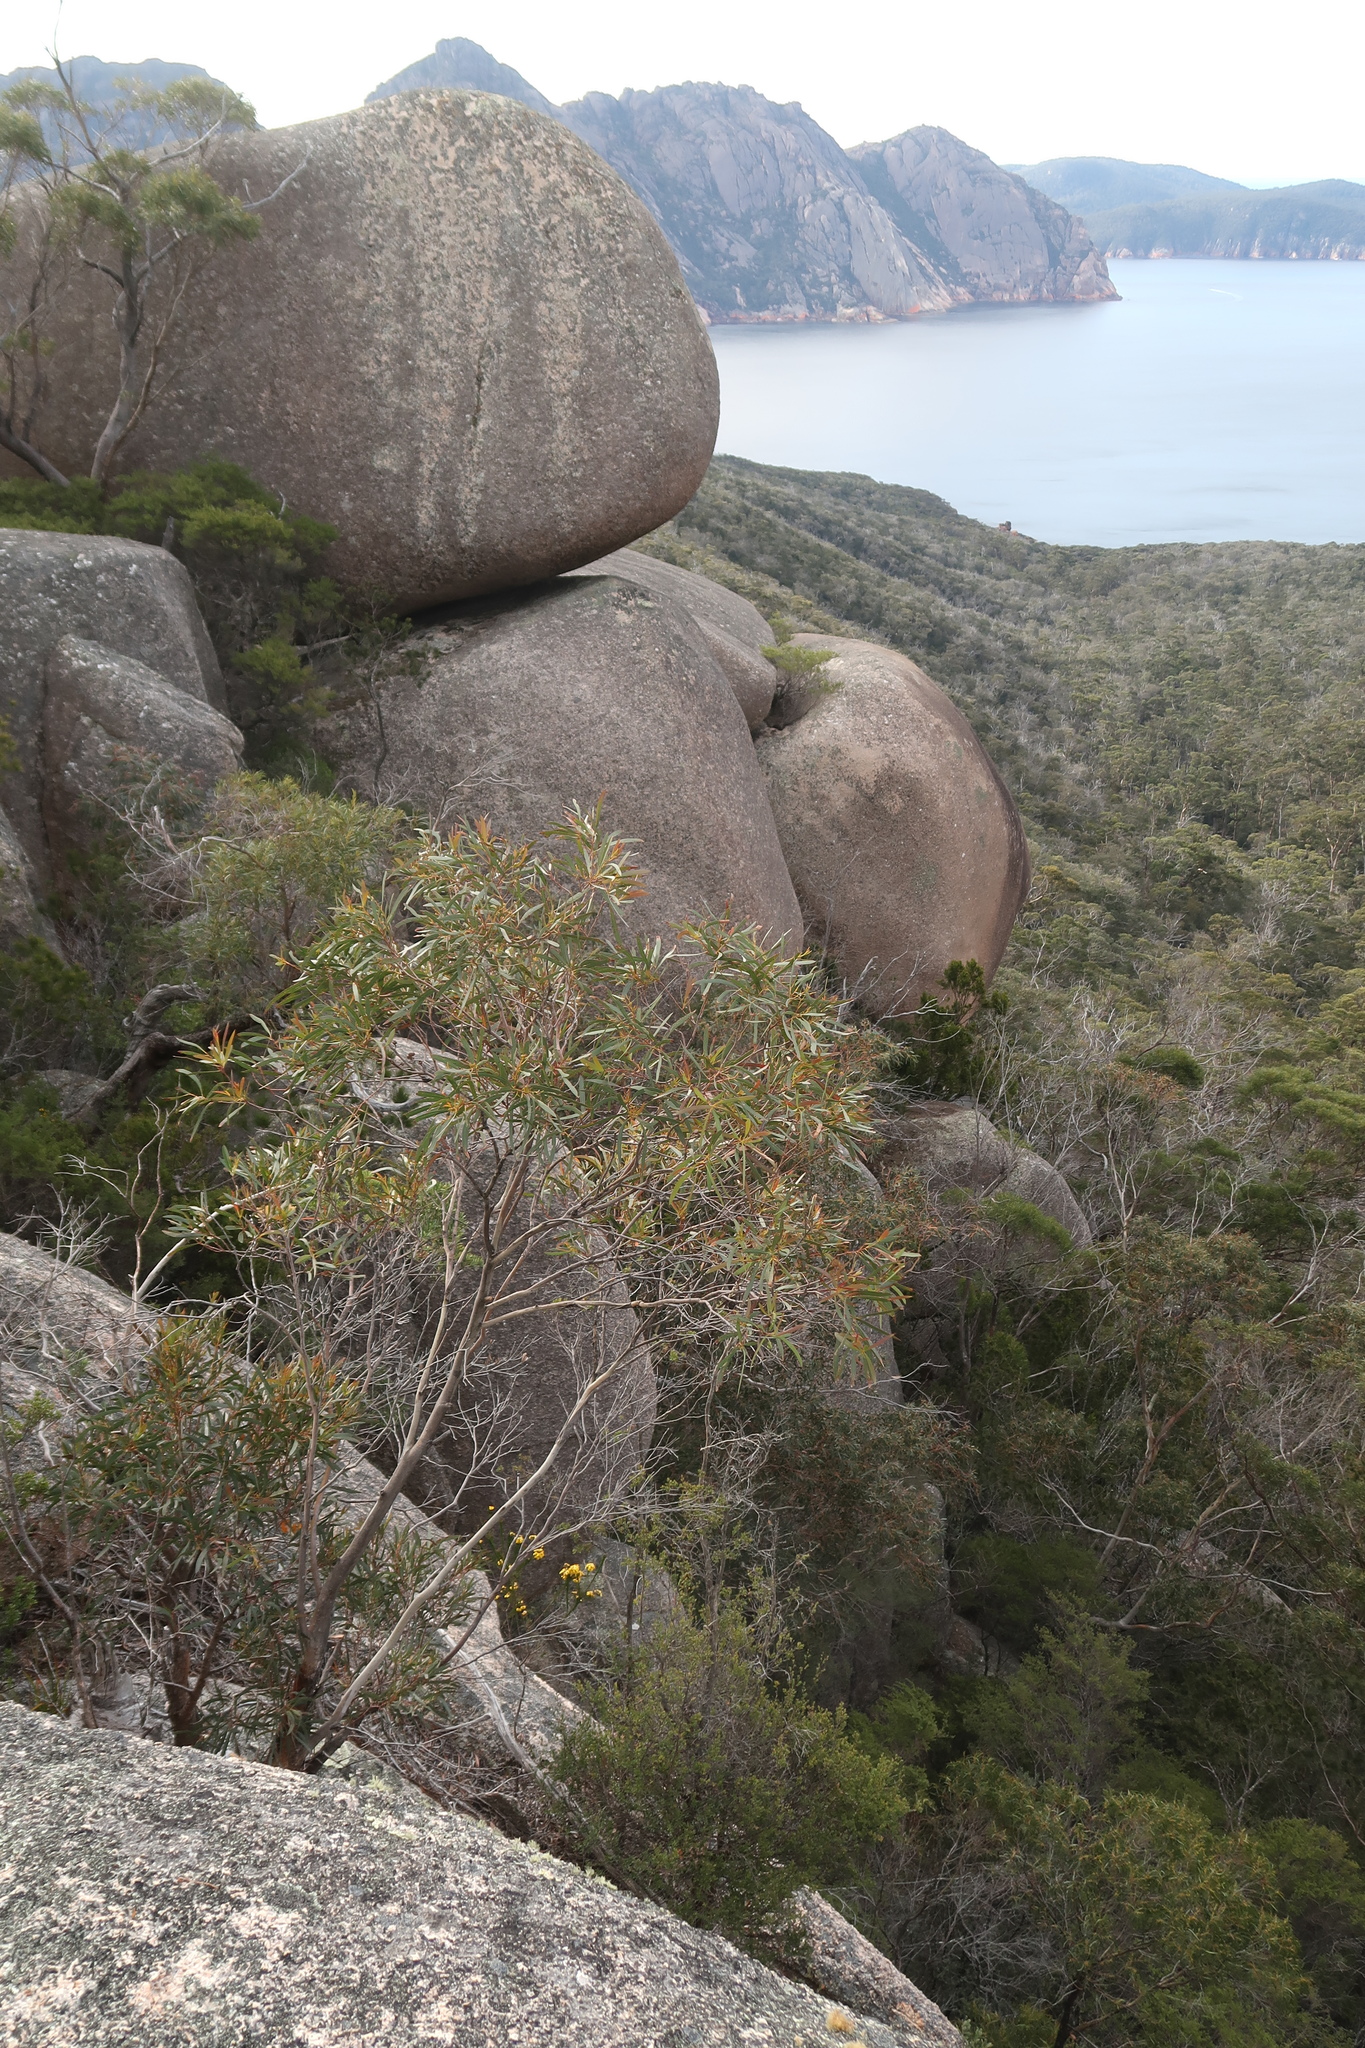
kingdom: Plantae
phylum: Tracheophyta
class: Magnoliopsida
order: Fabales
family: Fabaceae
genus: Dillwynia
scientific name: Dillwynia glaberrima
